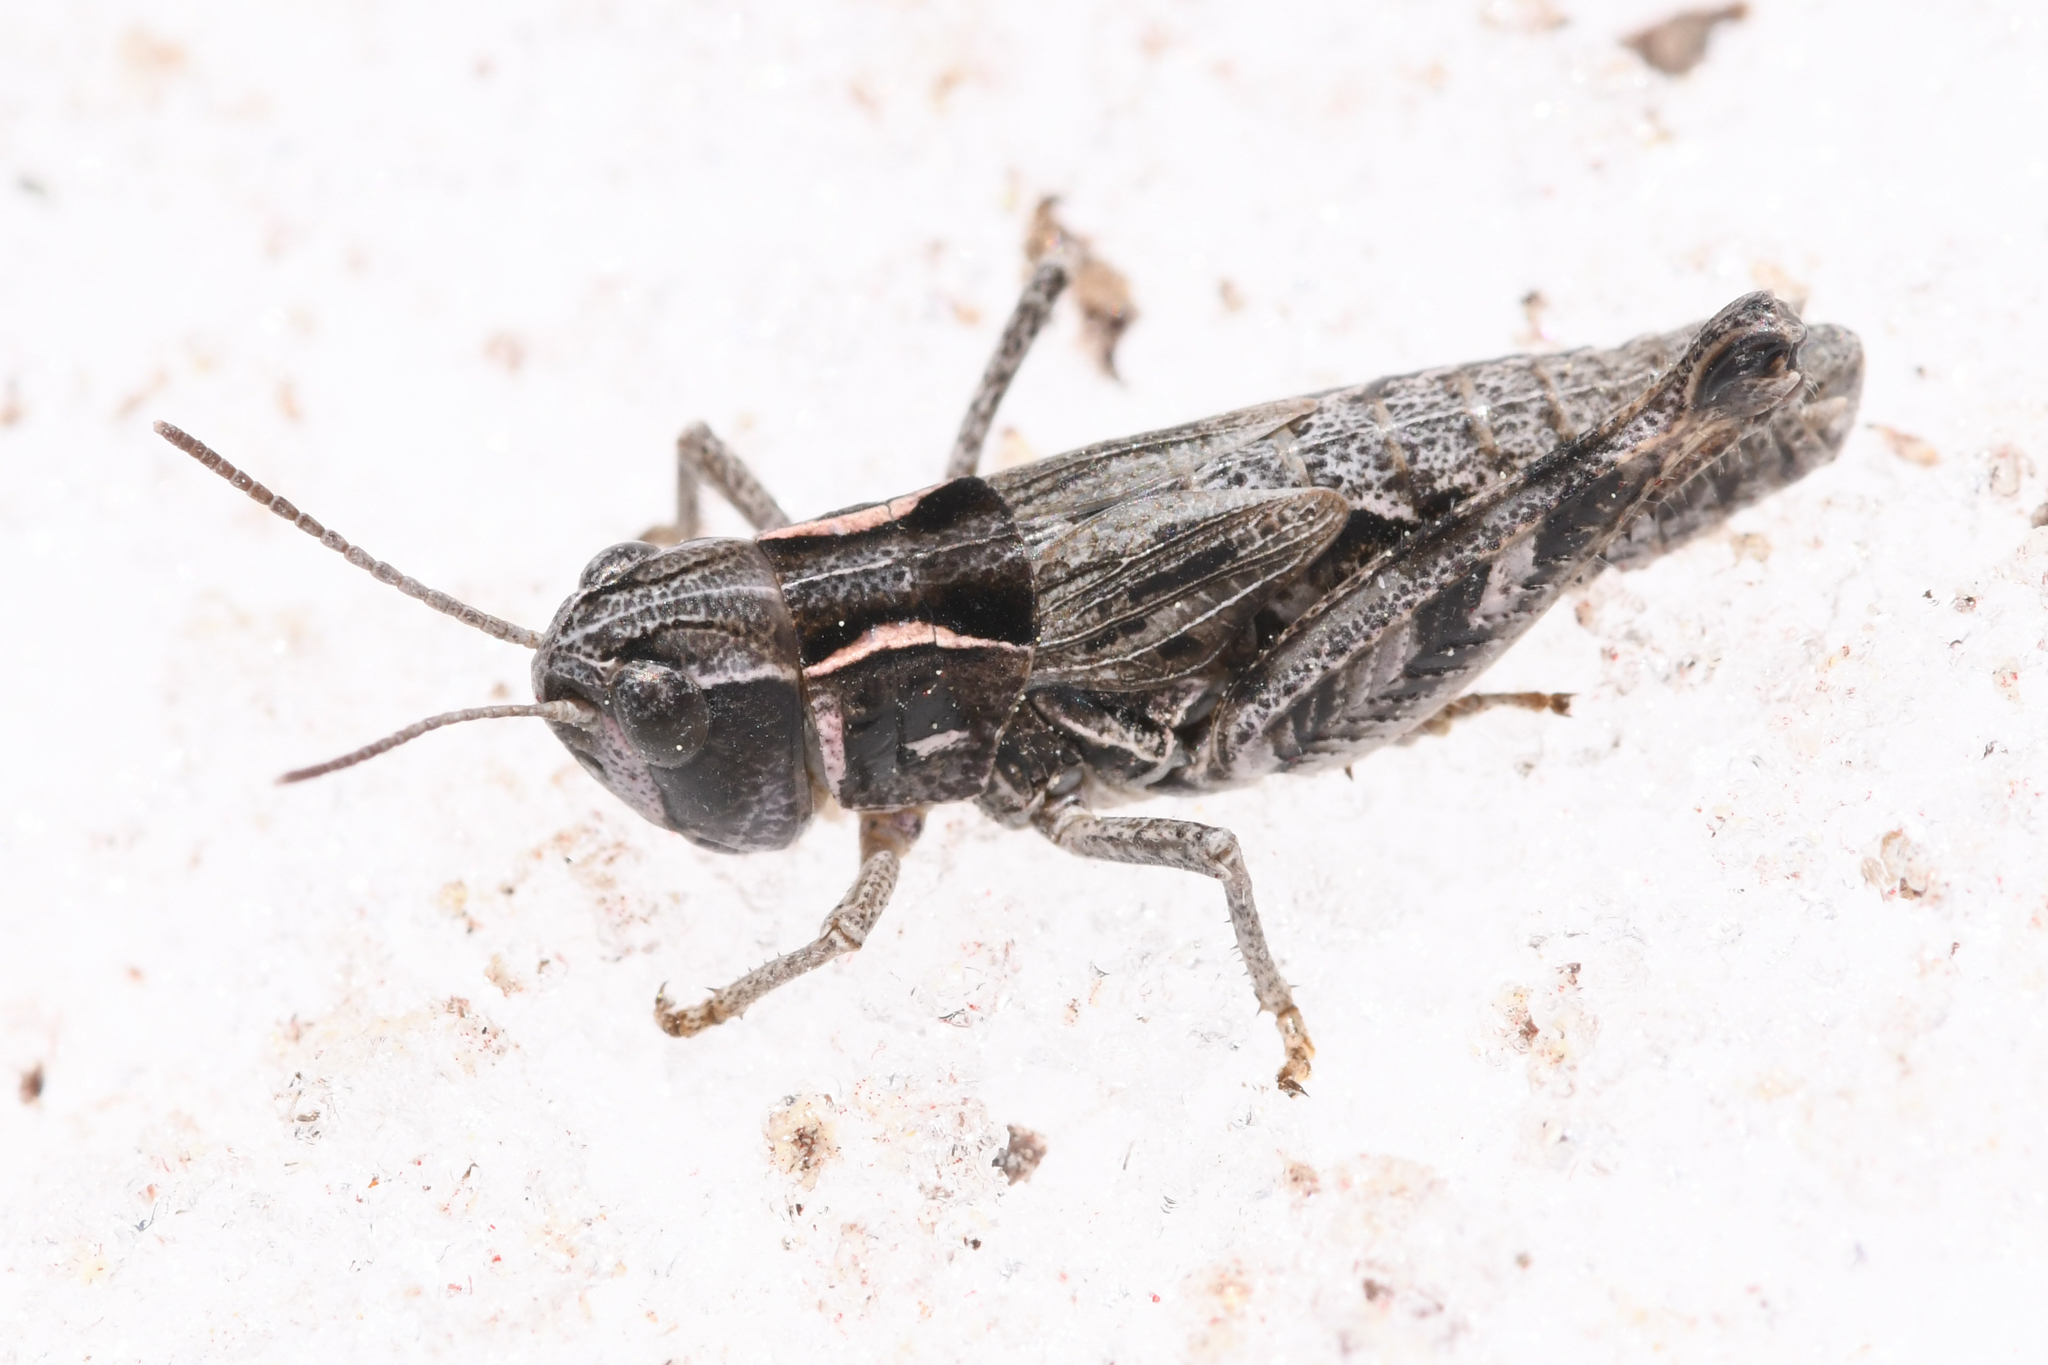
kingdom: Animalia
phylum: Arthropoda
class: Insecta
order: Orthoptera
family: Acrididae
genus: Bruneria
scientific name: Bruneria shastana
